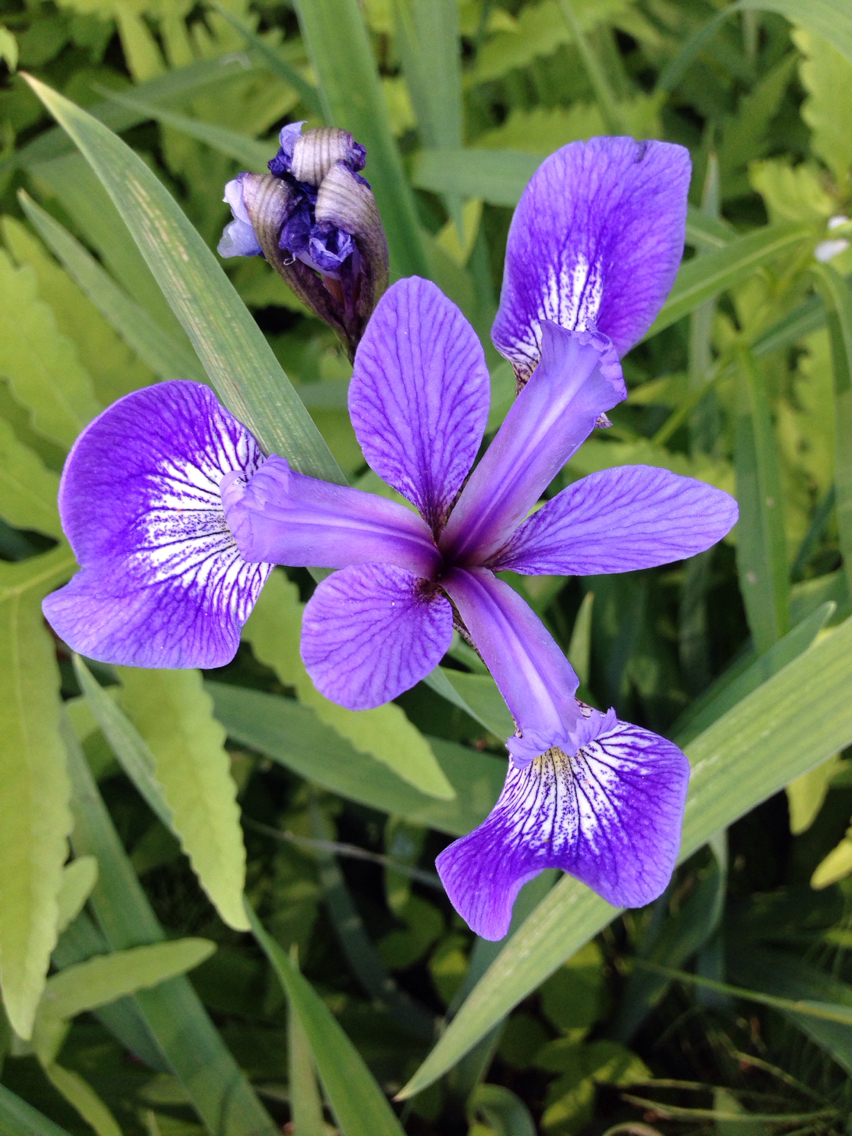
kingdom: Plantae
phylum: Tracheophyta
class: Liliopsida
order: Asparagales
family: Iridaceae
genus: Iris
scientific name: Iris versicolor
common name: Purple iris
